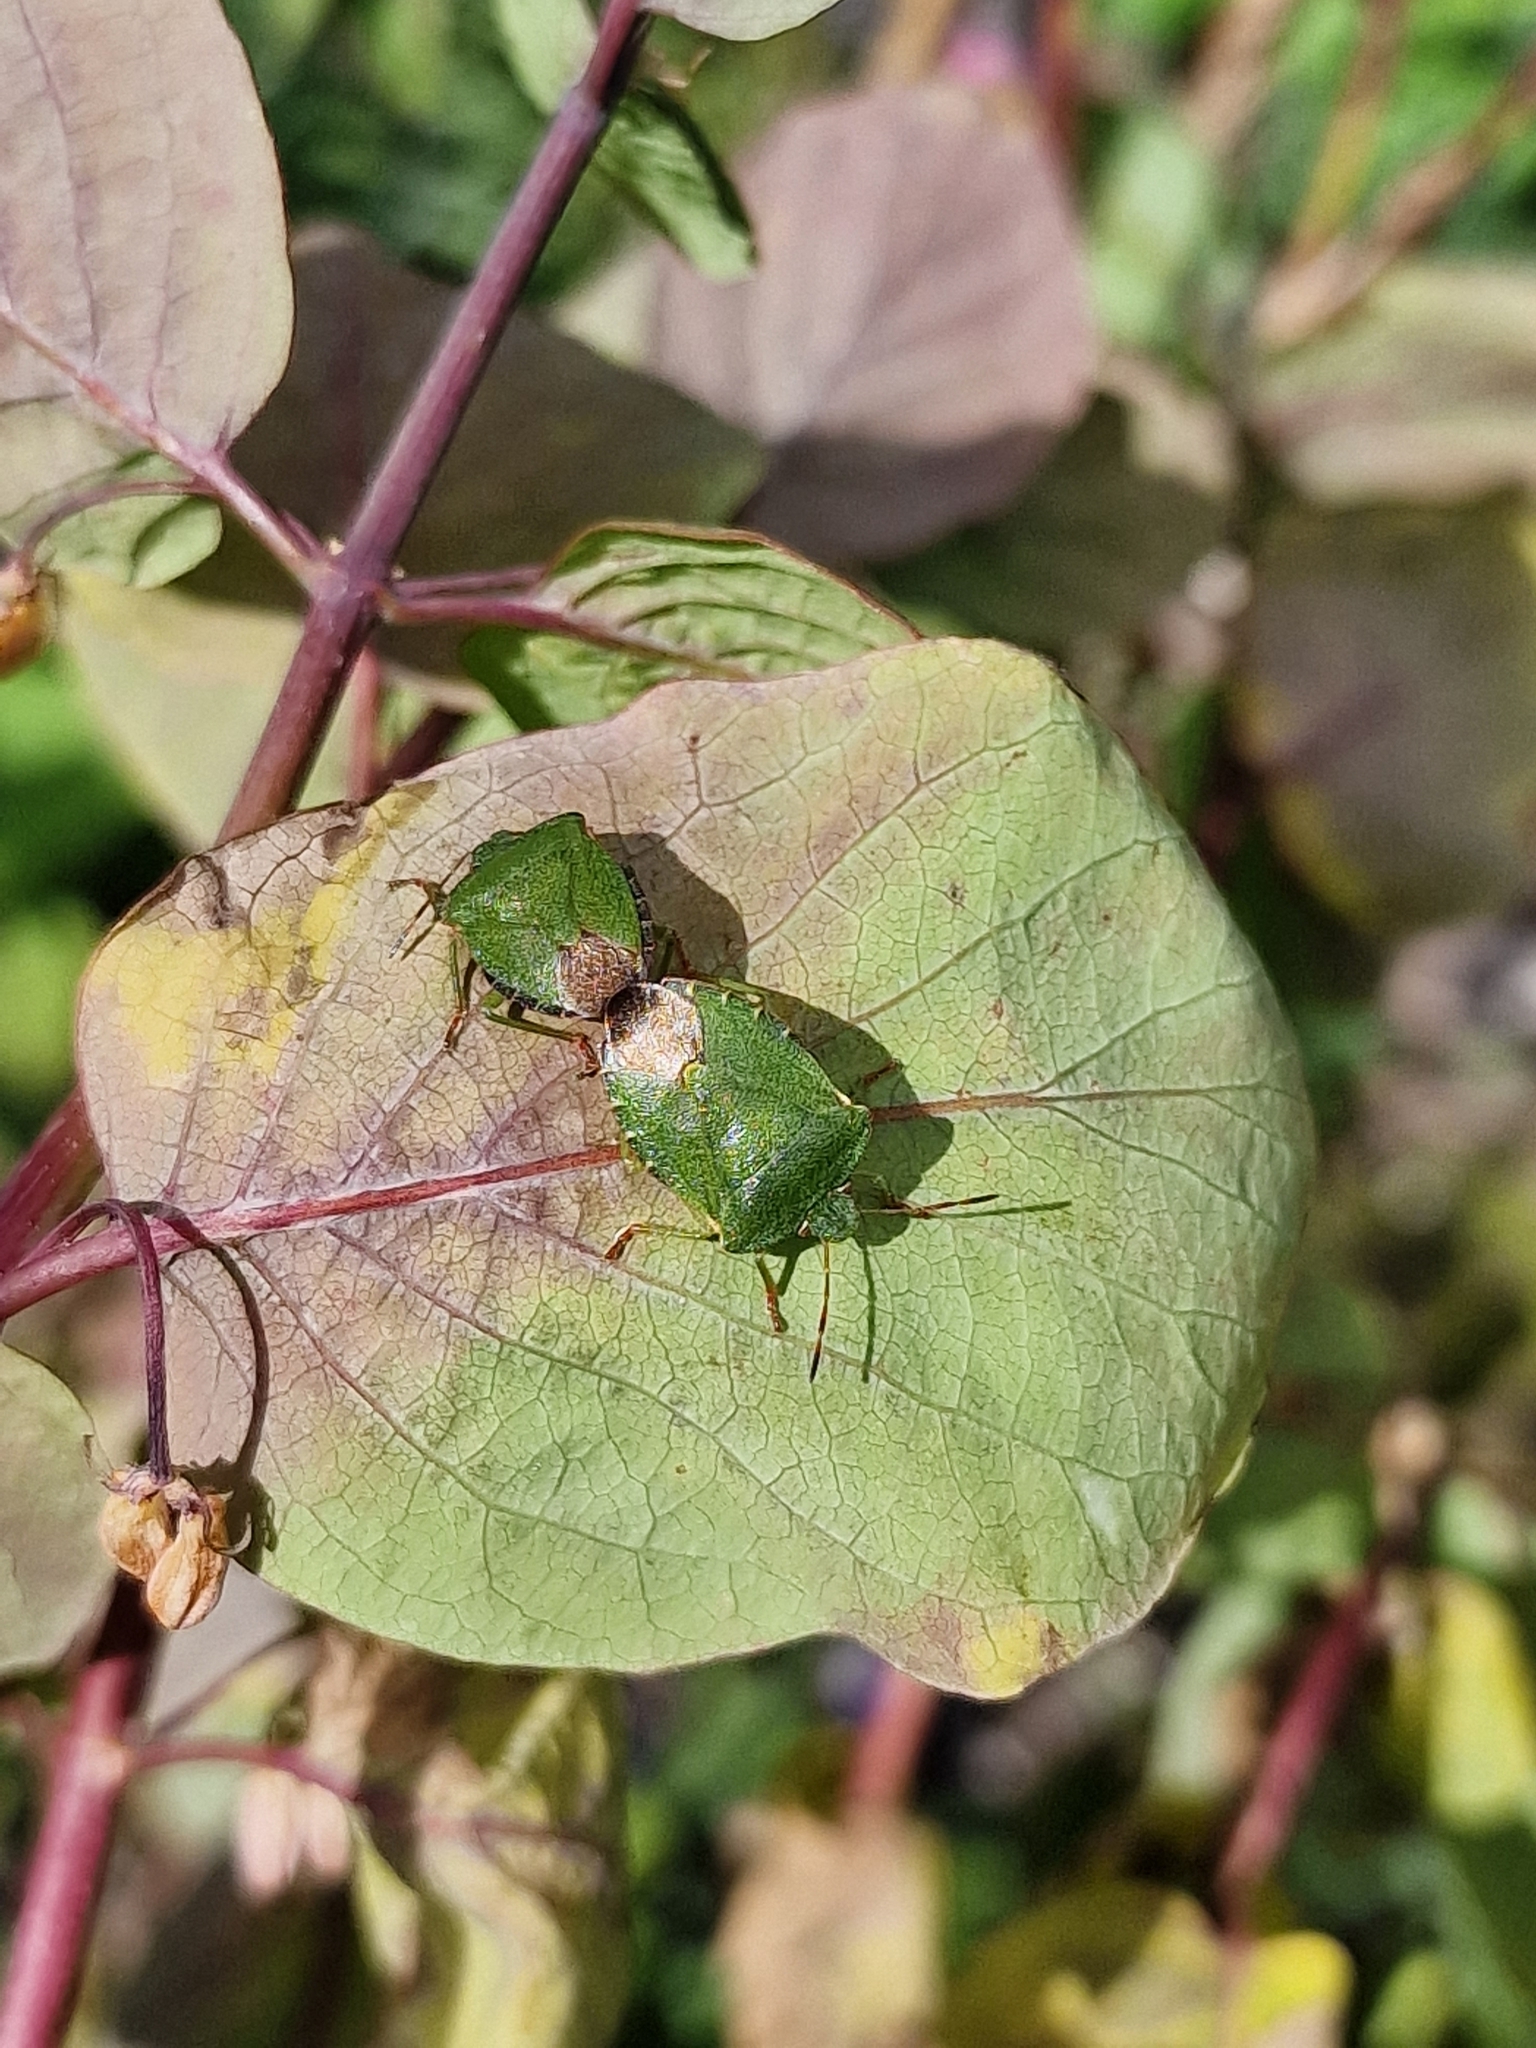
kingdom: Animalia
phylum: Arthropoda
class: Insecta
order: Hemiptera
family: Pentatomidae
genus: Palomena
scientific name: Palomena prasina
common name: Green shieldbug
